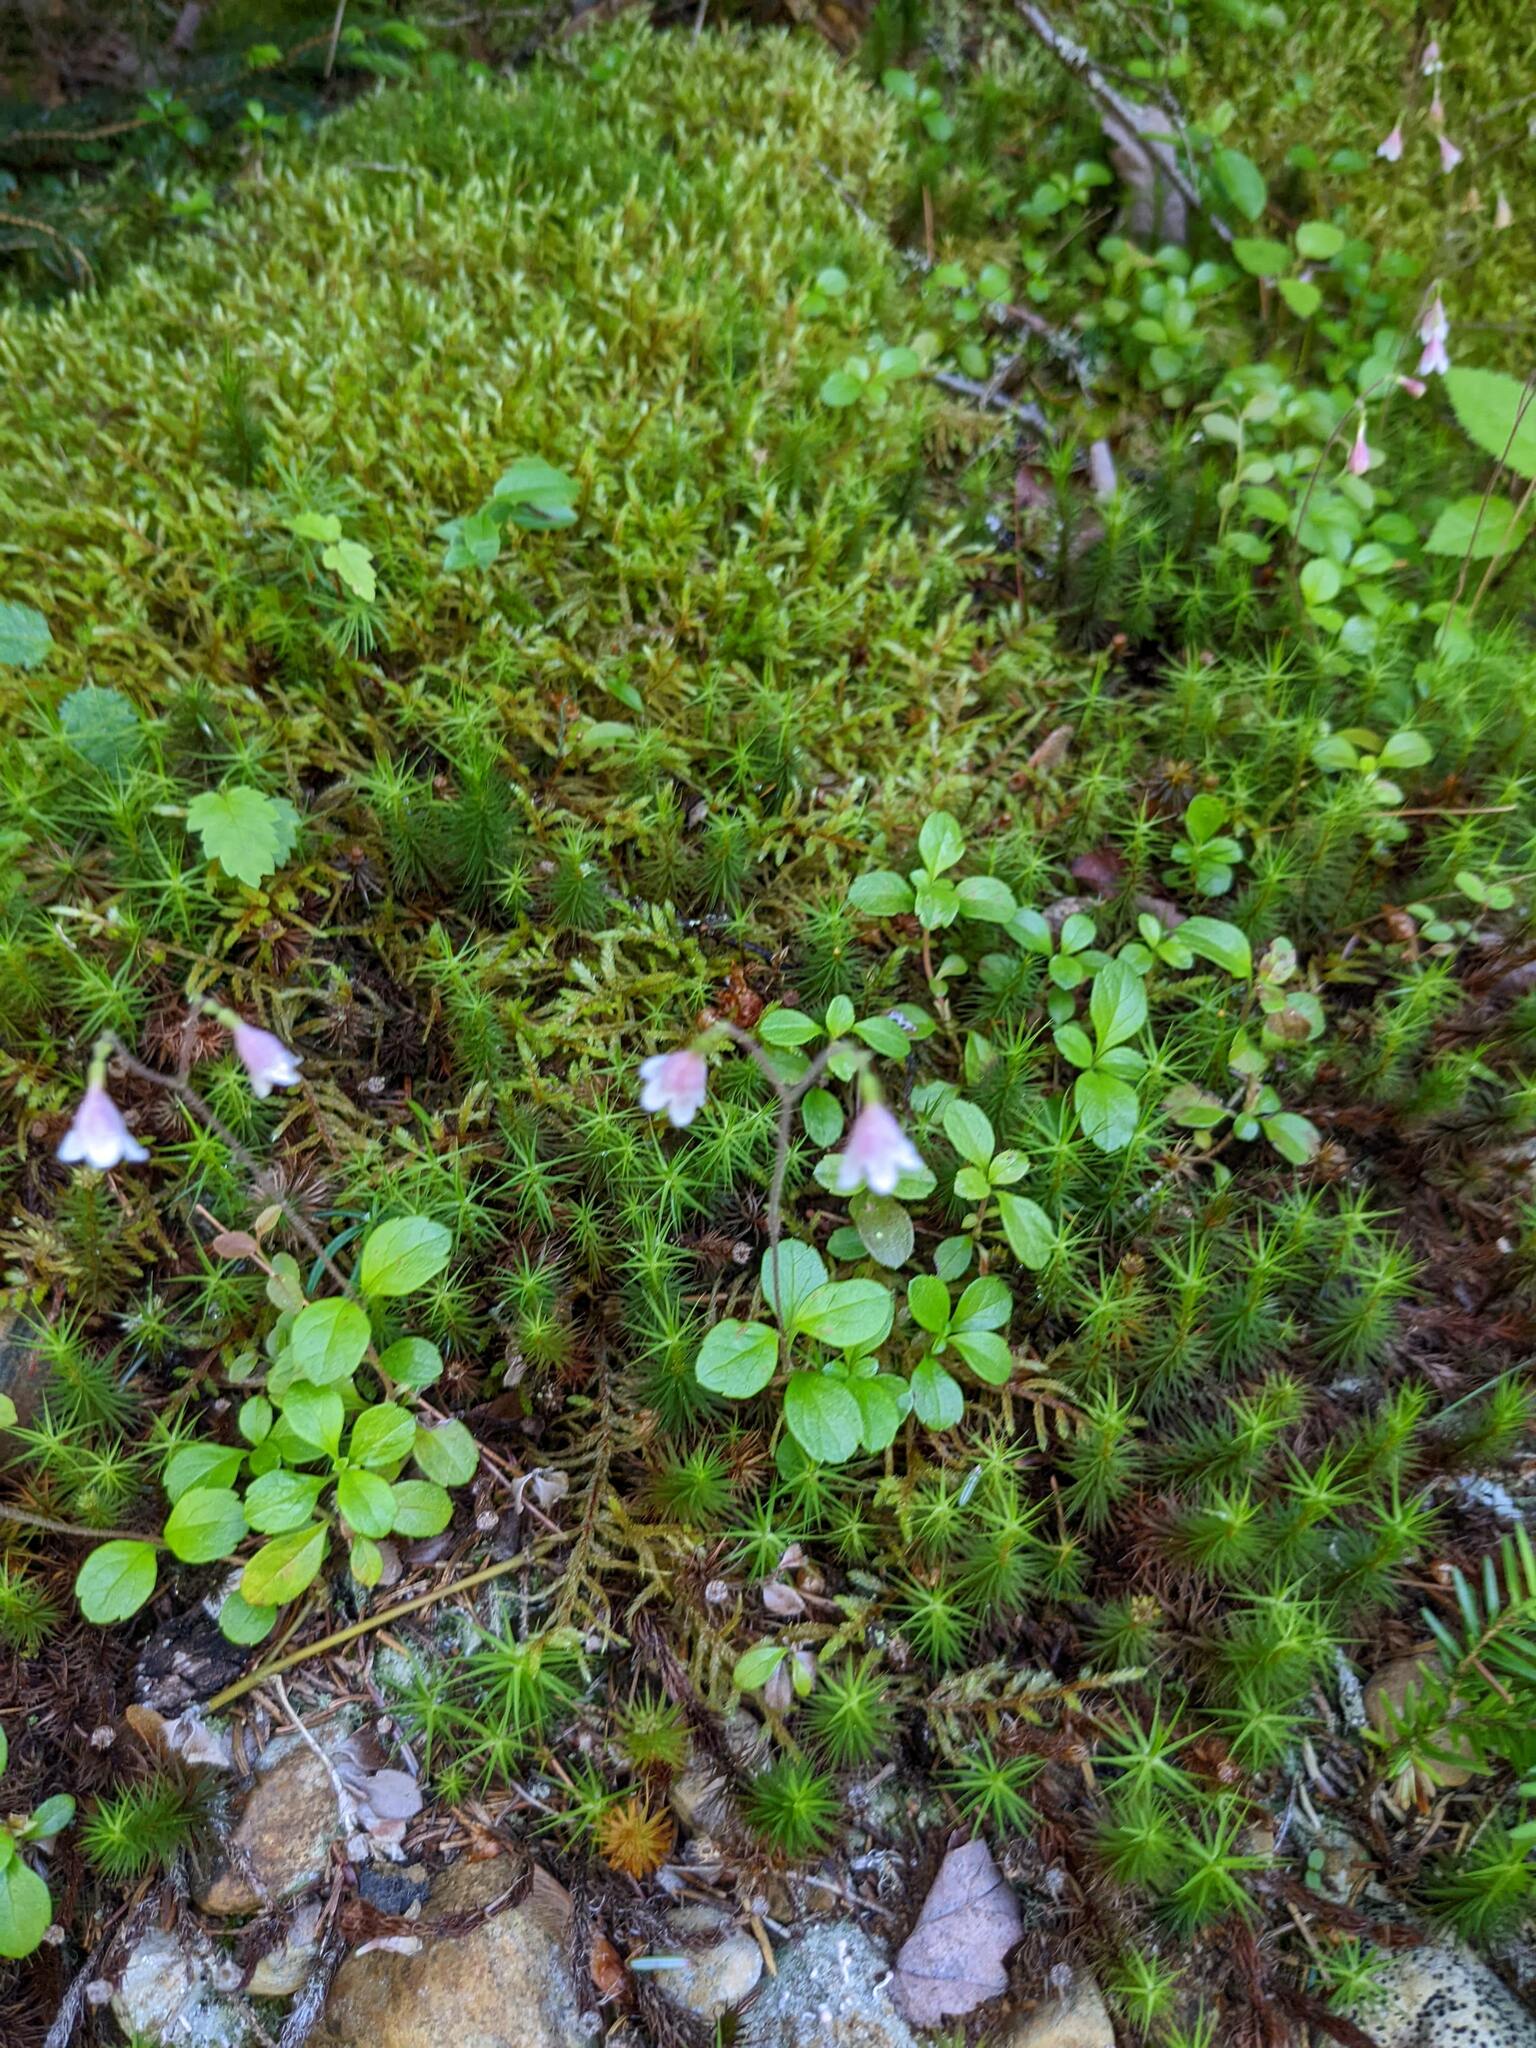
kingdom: Plantae
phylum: Tracheophyta
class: Magnoliopsida
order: Dipsacales
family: Caprifoliaceae
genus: Linnaea
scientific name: Linnaea borealis
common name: Twinflower
